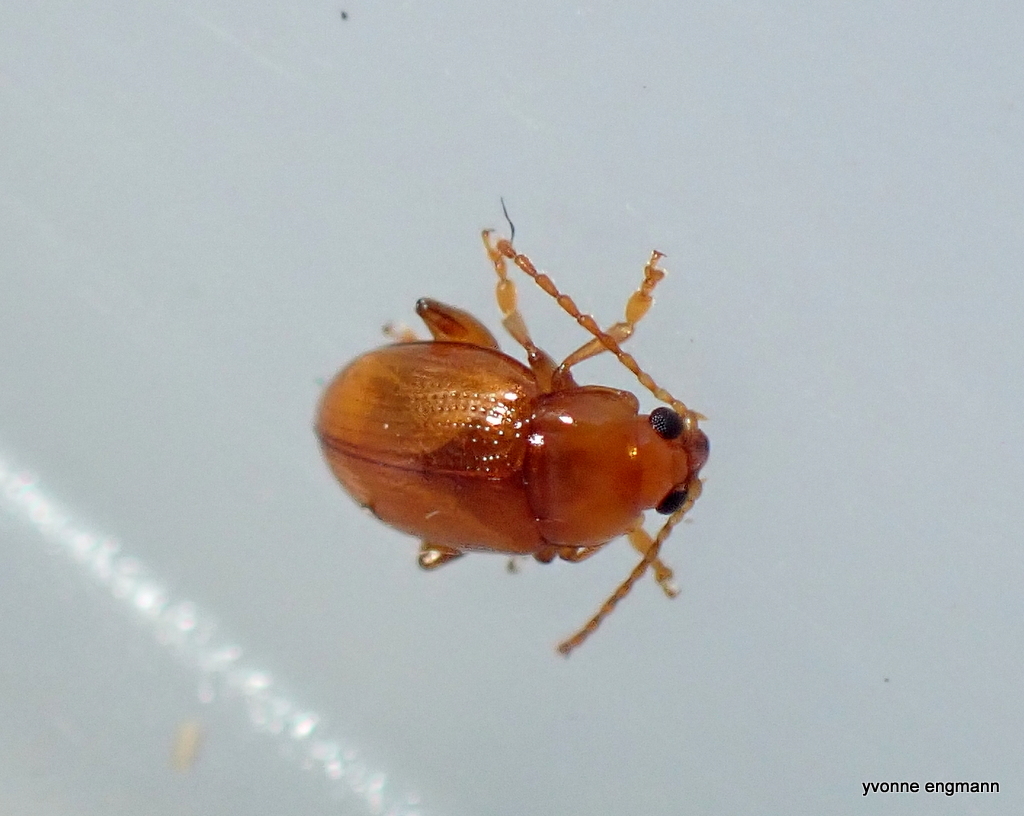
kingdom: Animalia
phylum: Arthropoda
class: Insecta
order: Coleoptera
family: Chrysomelidae
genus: Alticini
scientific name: Alticini
